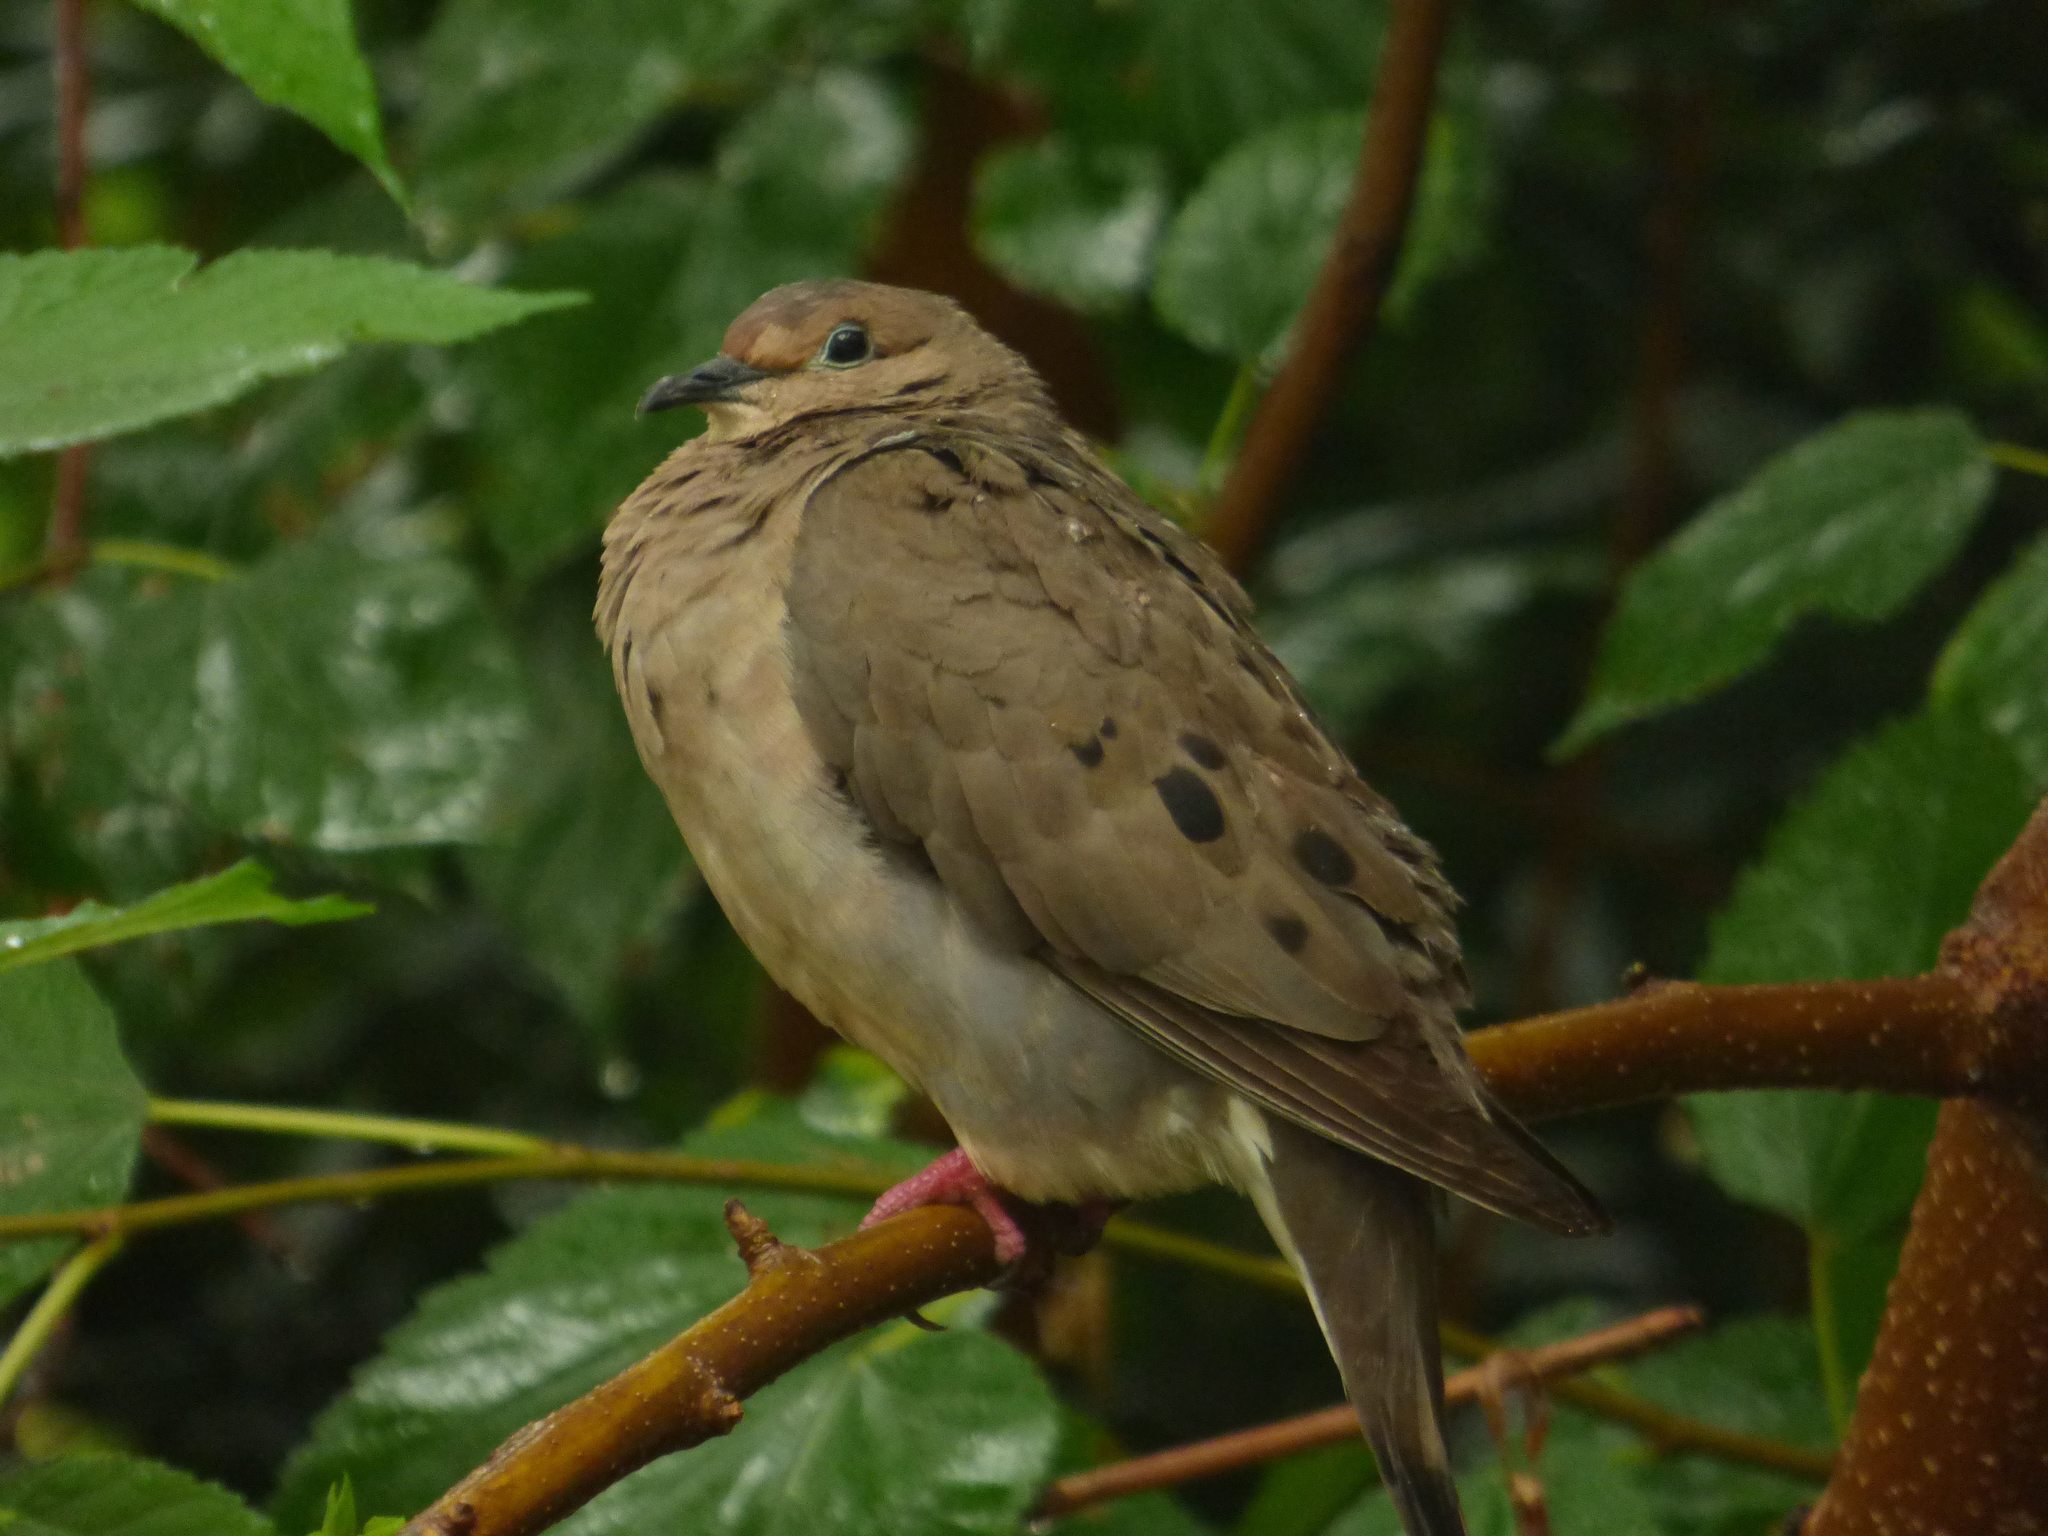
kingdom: Animalia
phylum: Chordata
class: Aves
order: Columbiformes
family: Columbidae
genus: Zenaida
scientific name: Zenaida auriculata
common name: Eared dove
